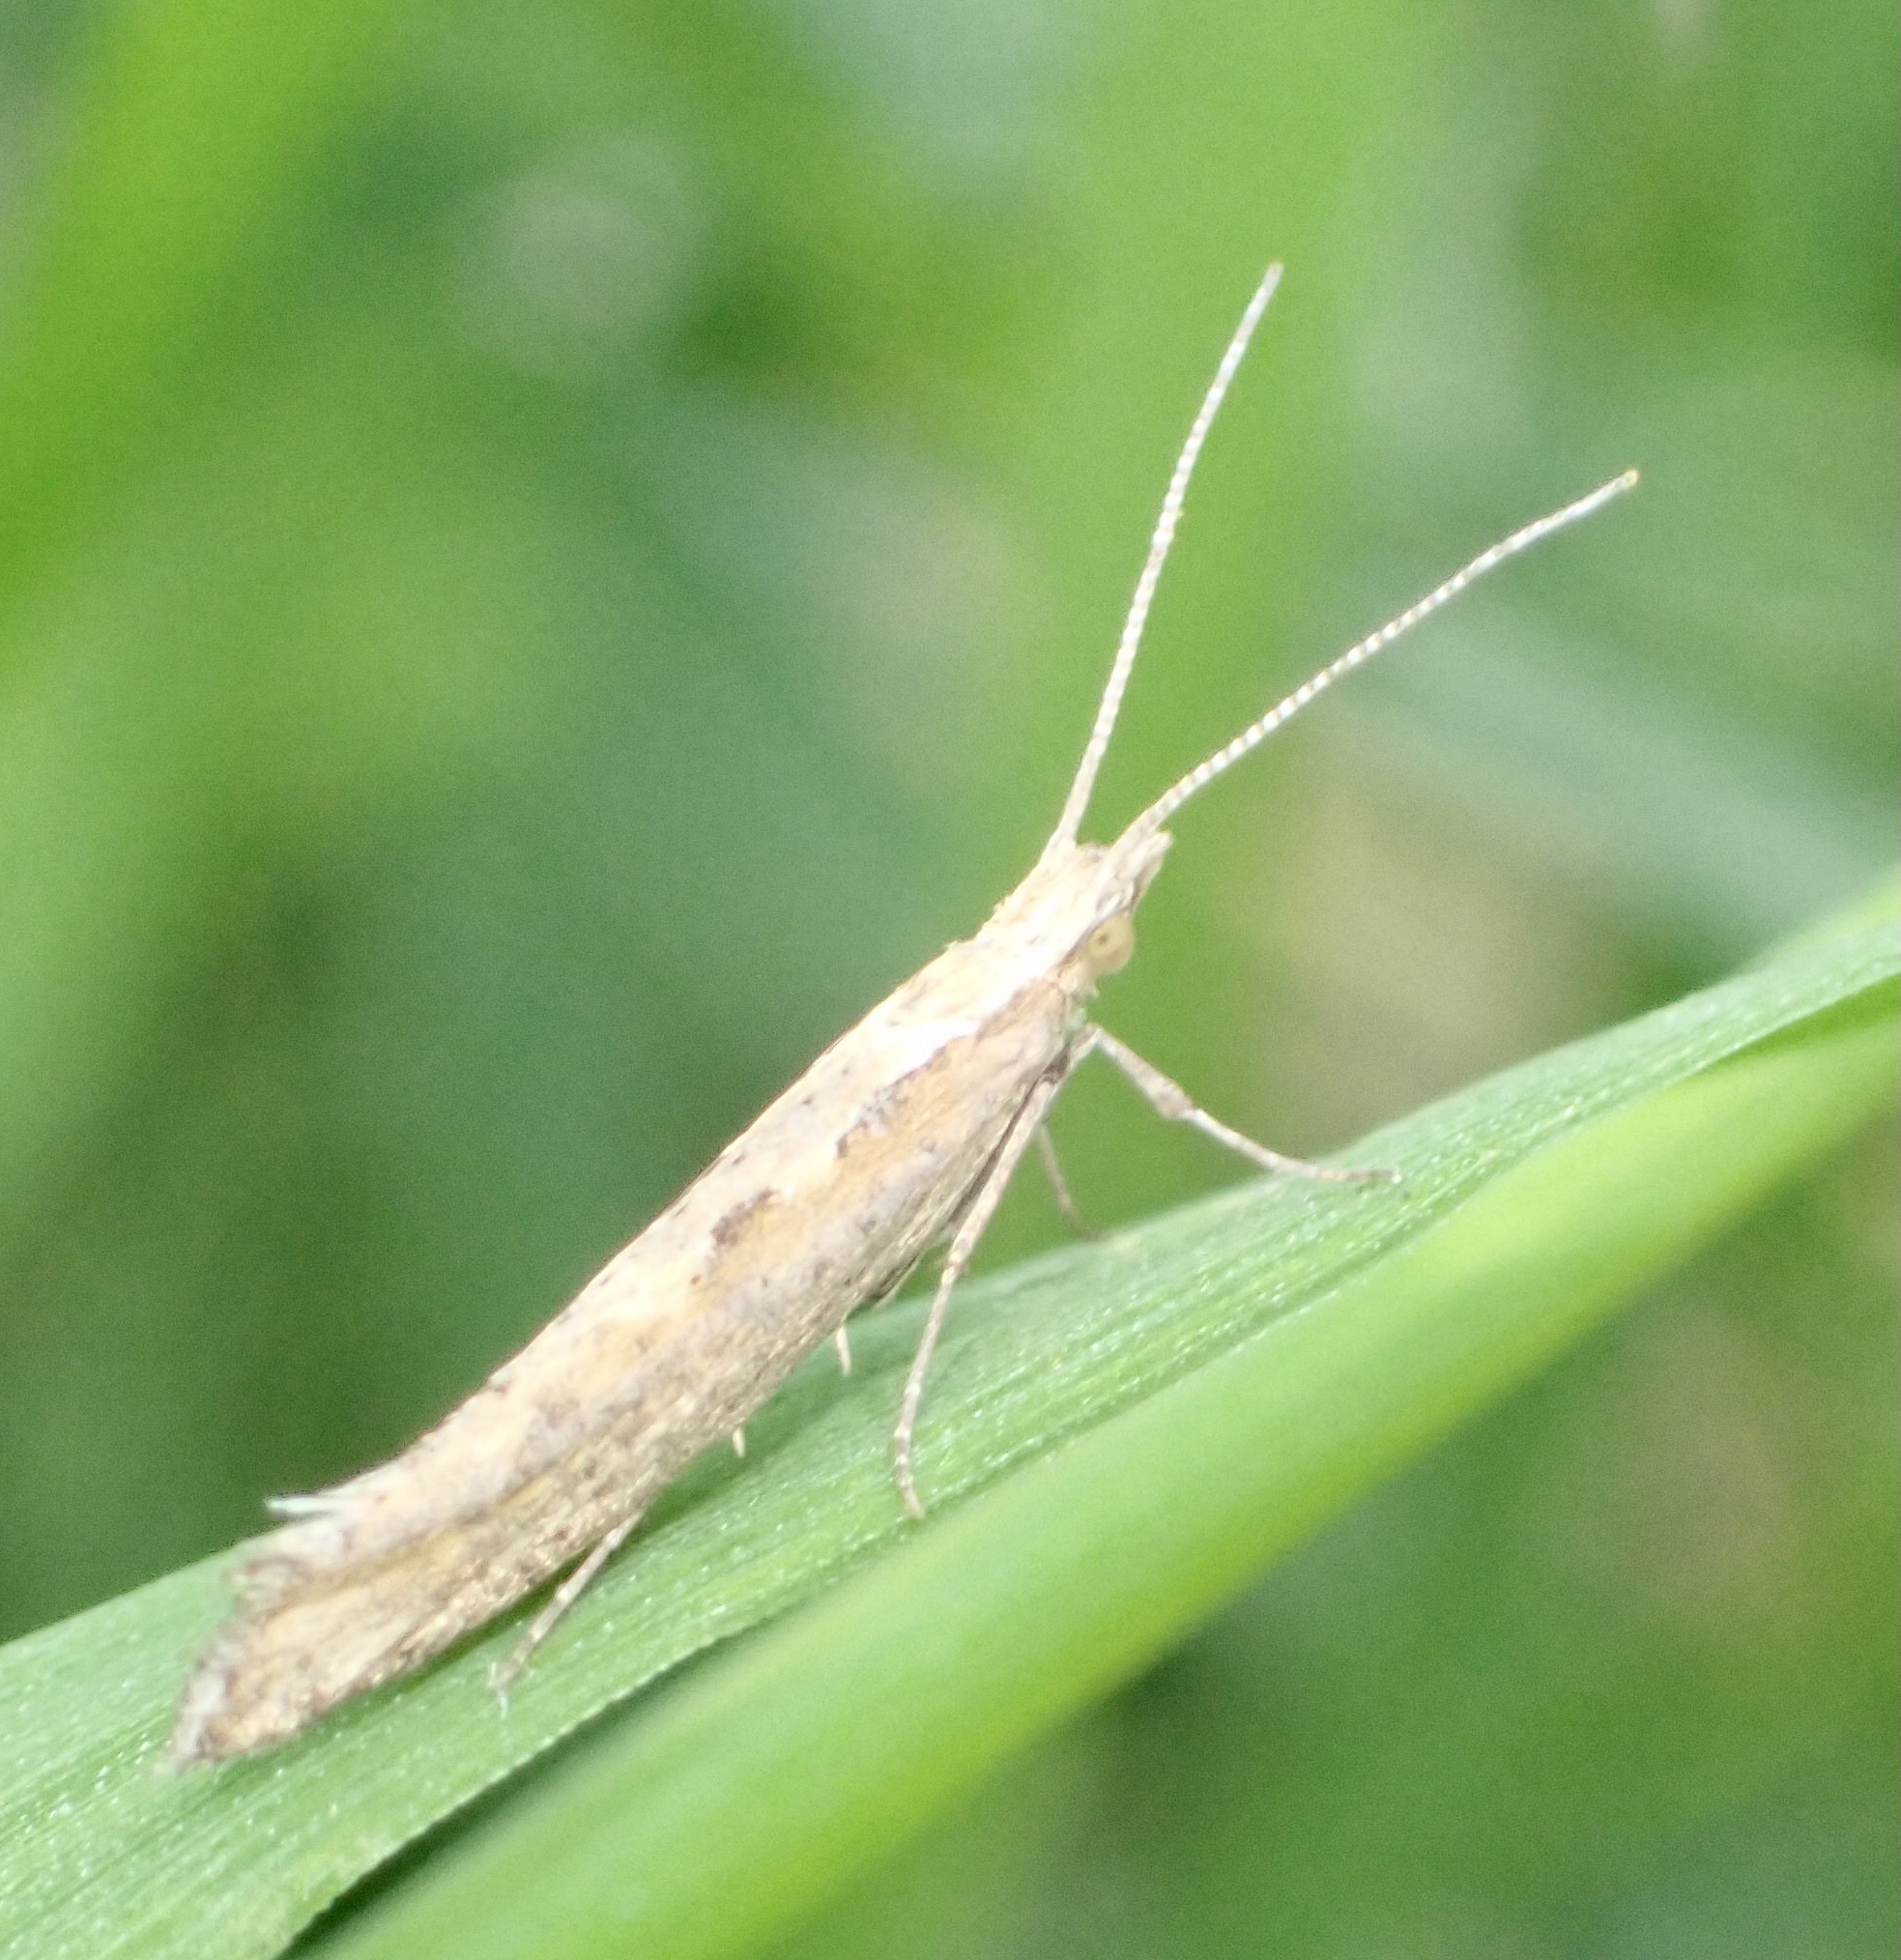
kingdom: Animalia
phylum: Arthropoda
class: Insecta
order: Lepidoptera
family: Plutellidae
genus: Plutella
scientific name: Plutella xylostella
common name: Diamond-back moth
